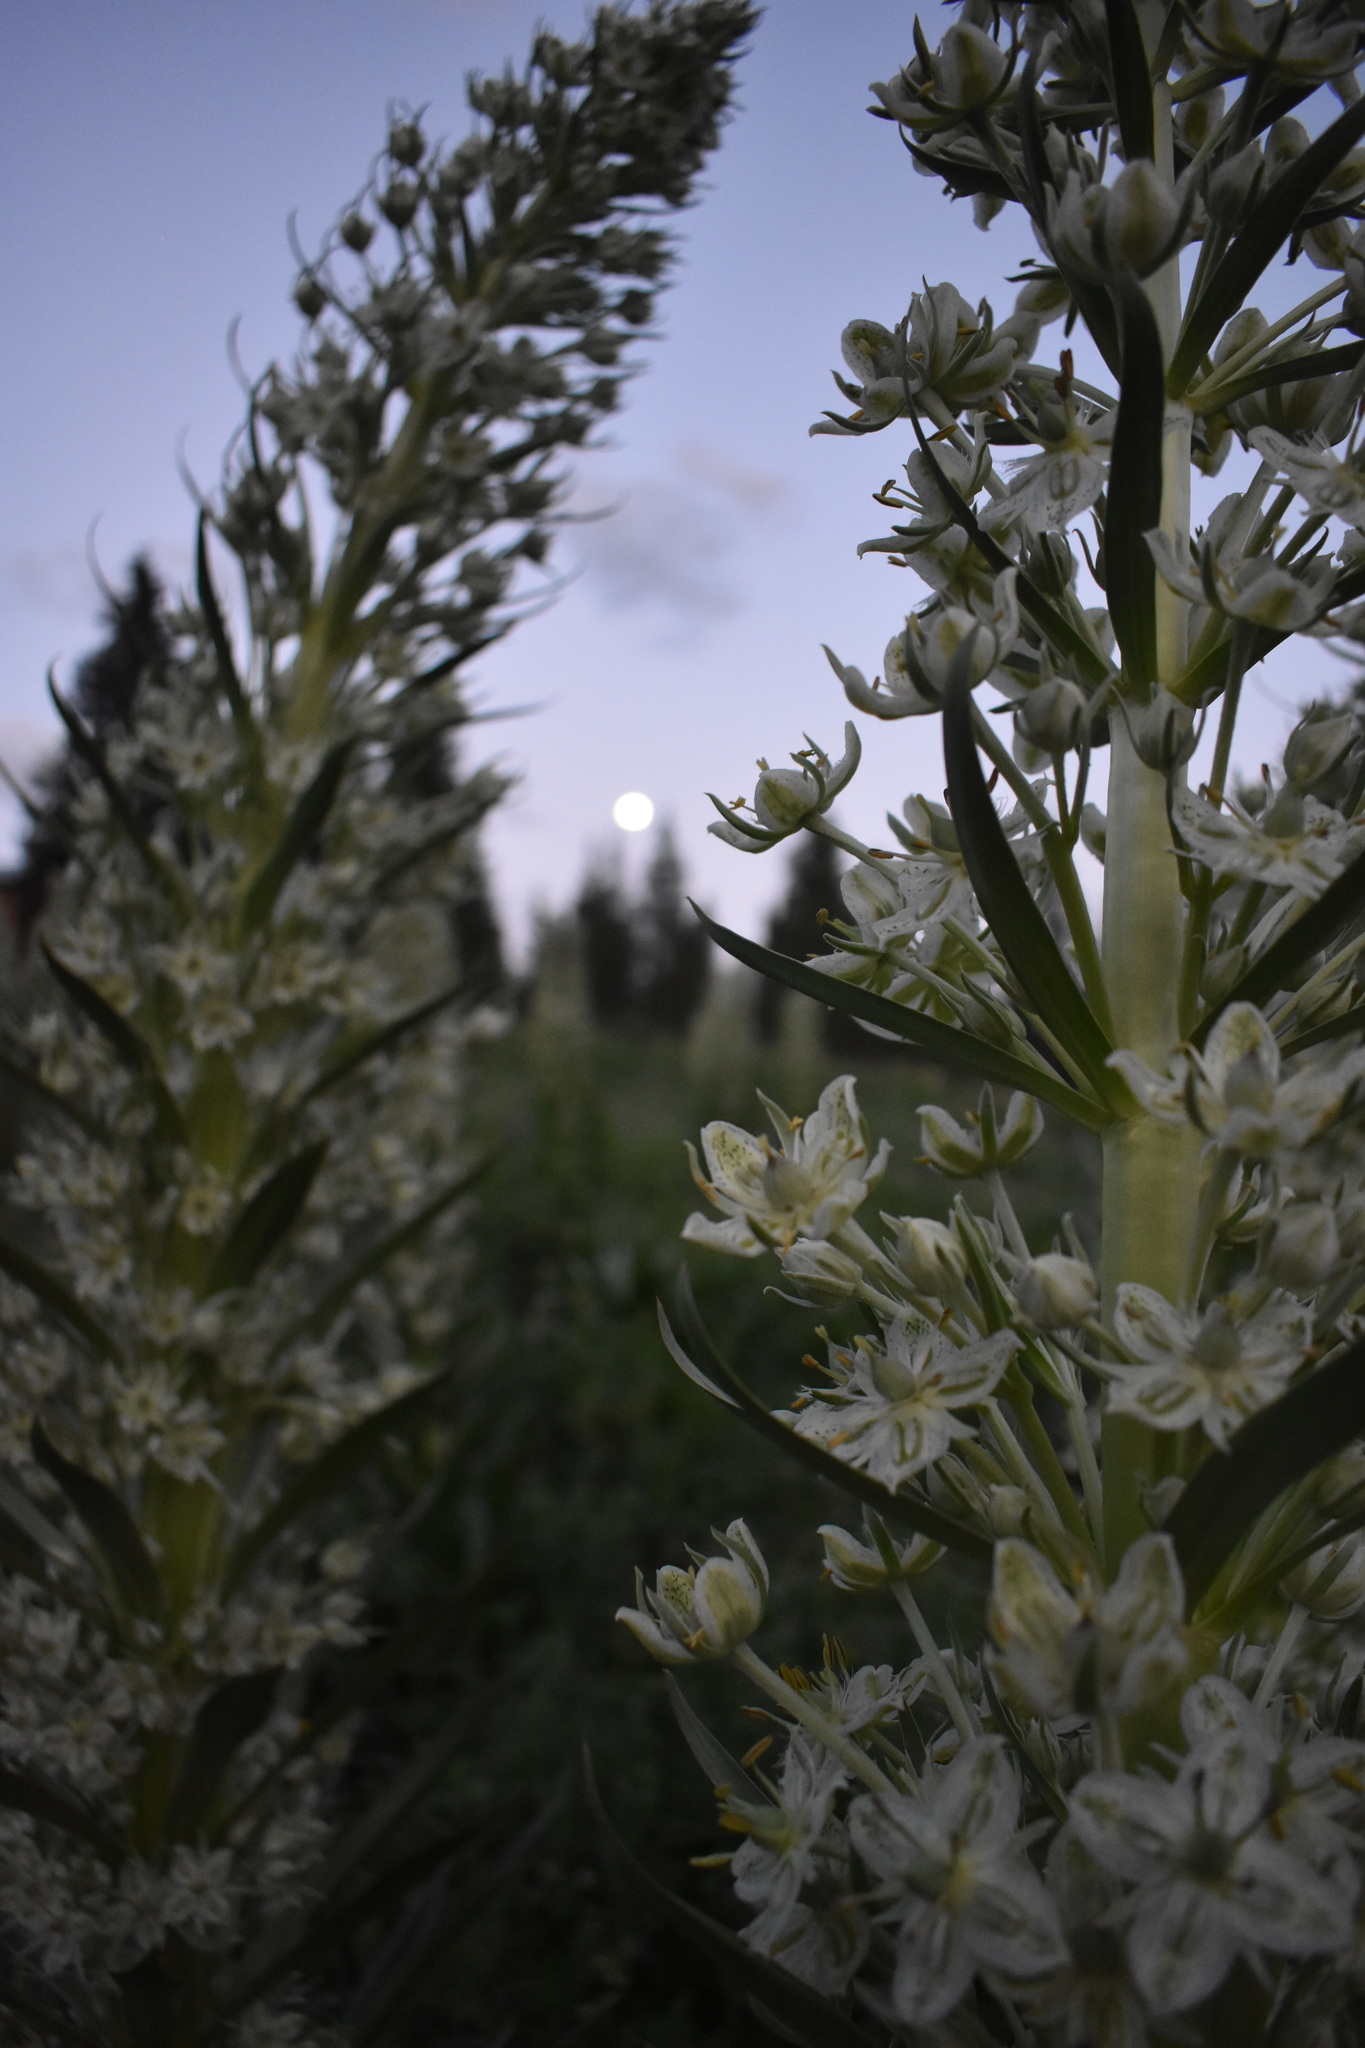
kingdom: Plantae
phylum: Tracheophyta
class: Magnoliopsida
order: Gentianales
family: Gentianaceae
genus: Frasera
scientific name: Frasera speciosa
